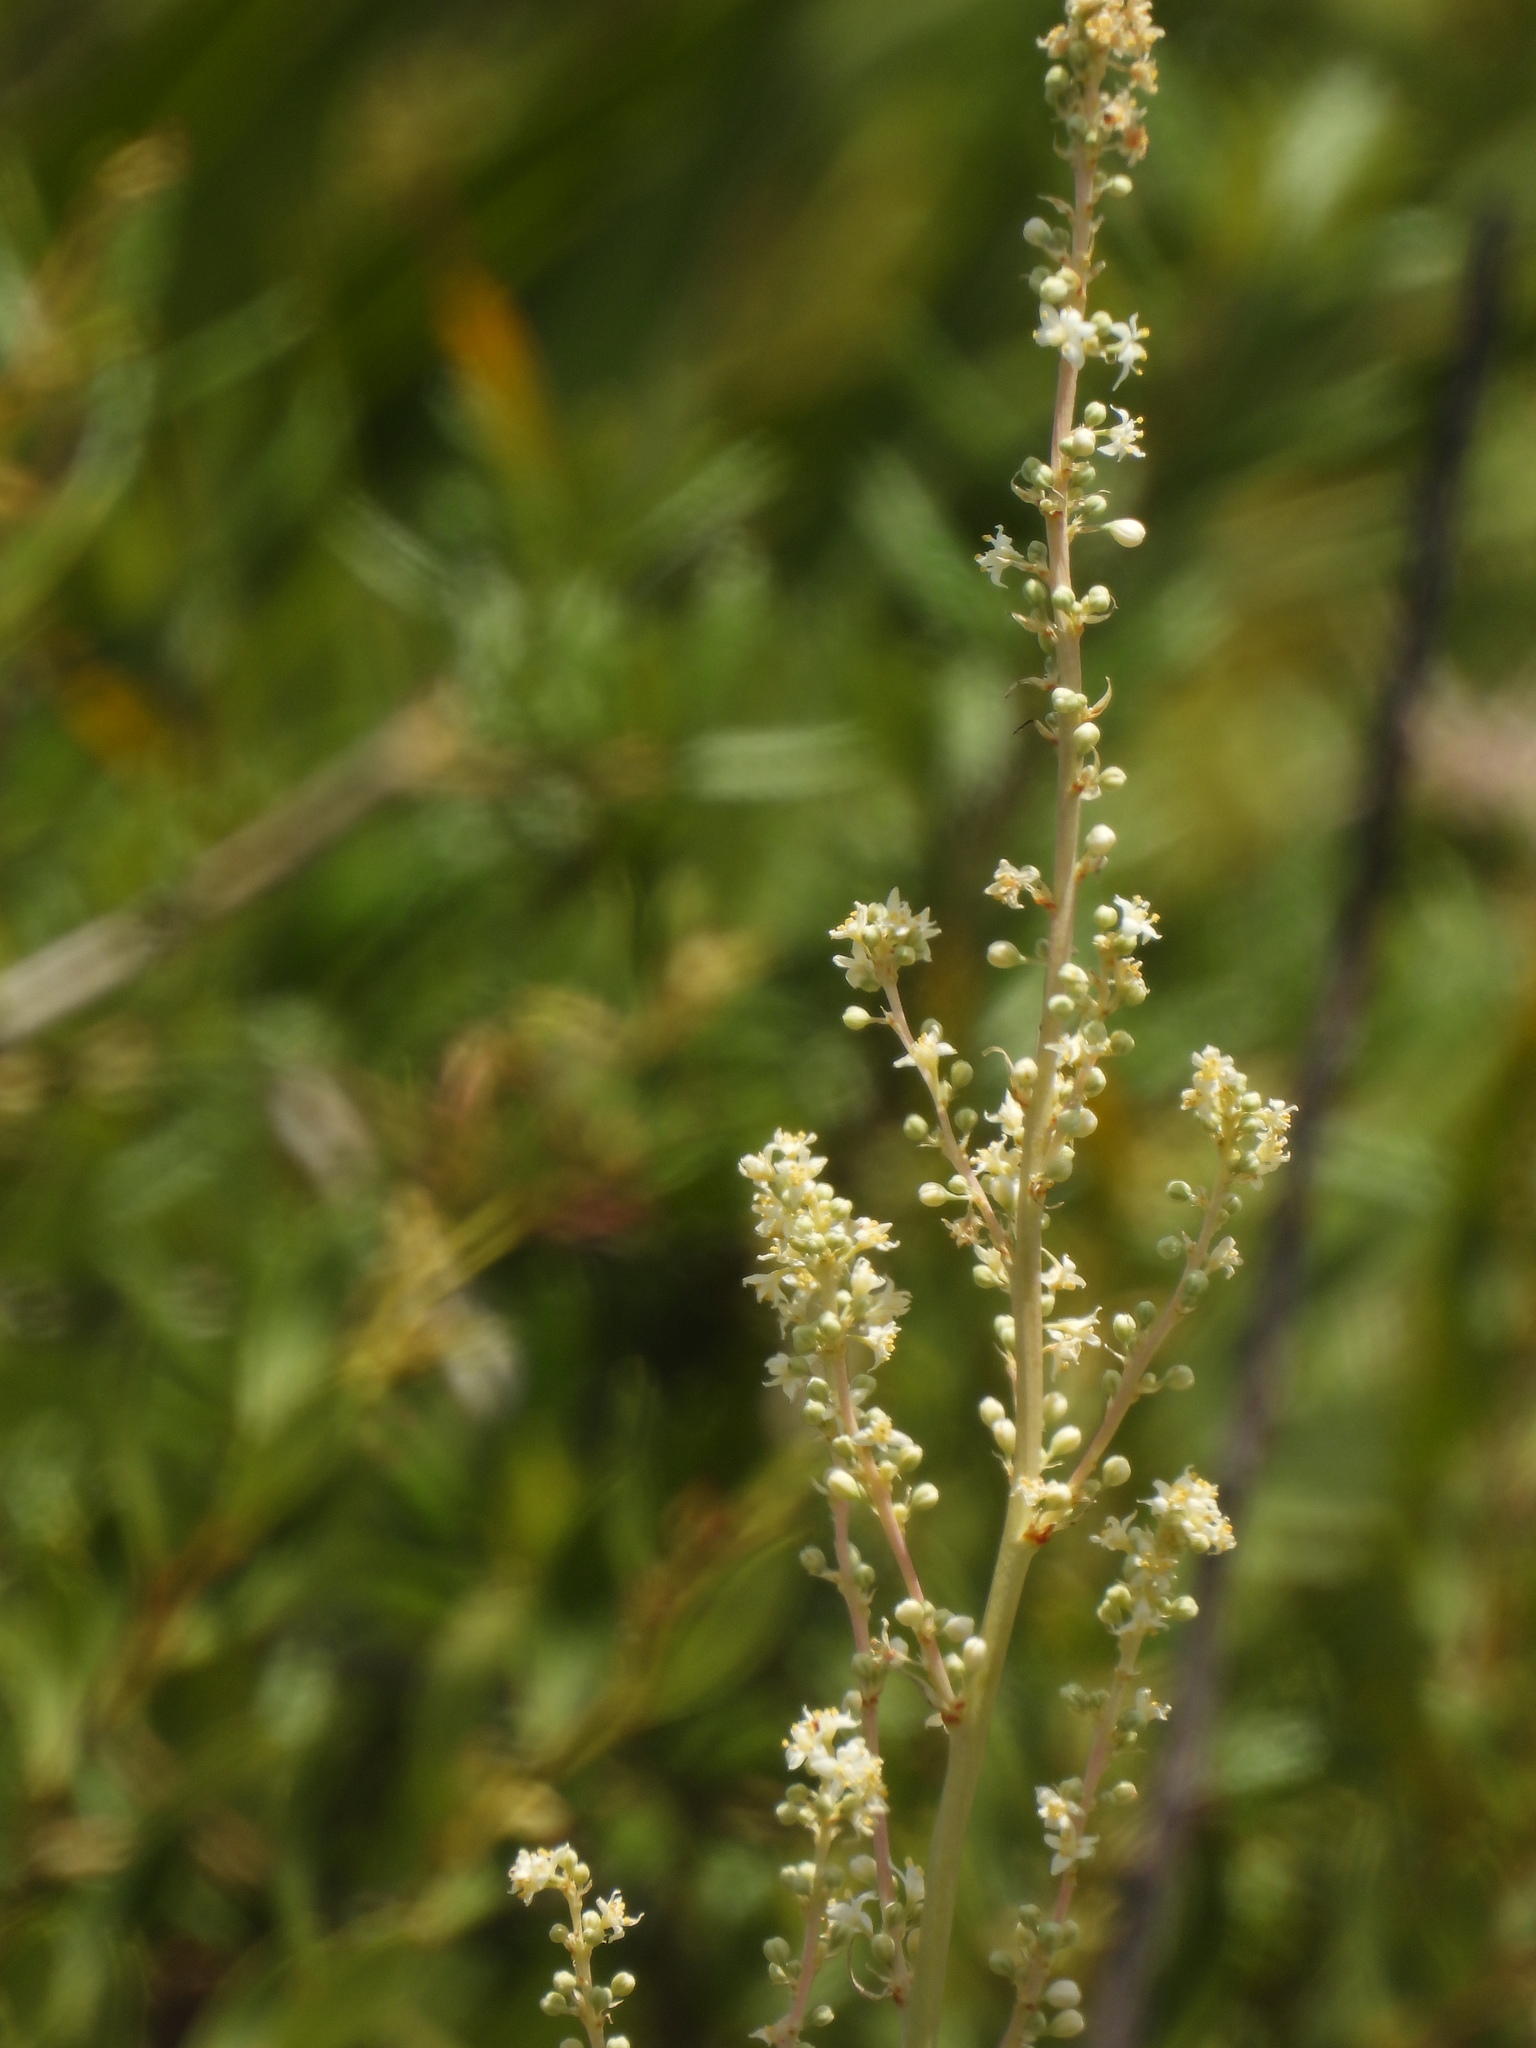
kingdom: Plantae
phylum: Tracheophyta
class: Liliopsida
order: Asparagales
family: Asparagaceae
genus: Nolina
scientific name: Nolina brittoniana
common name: Britton's bear-grass
